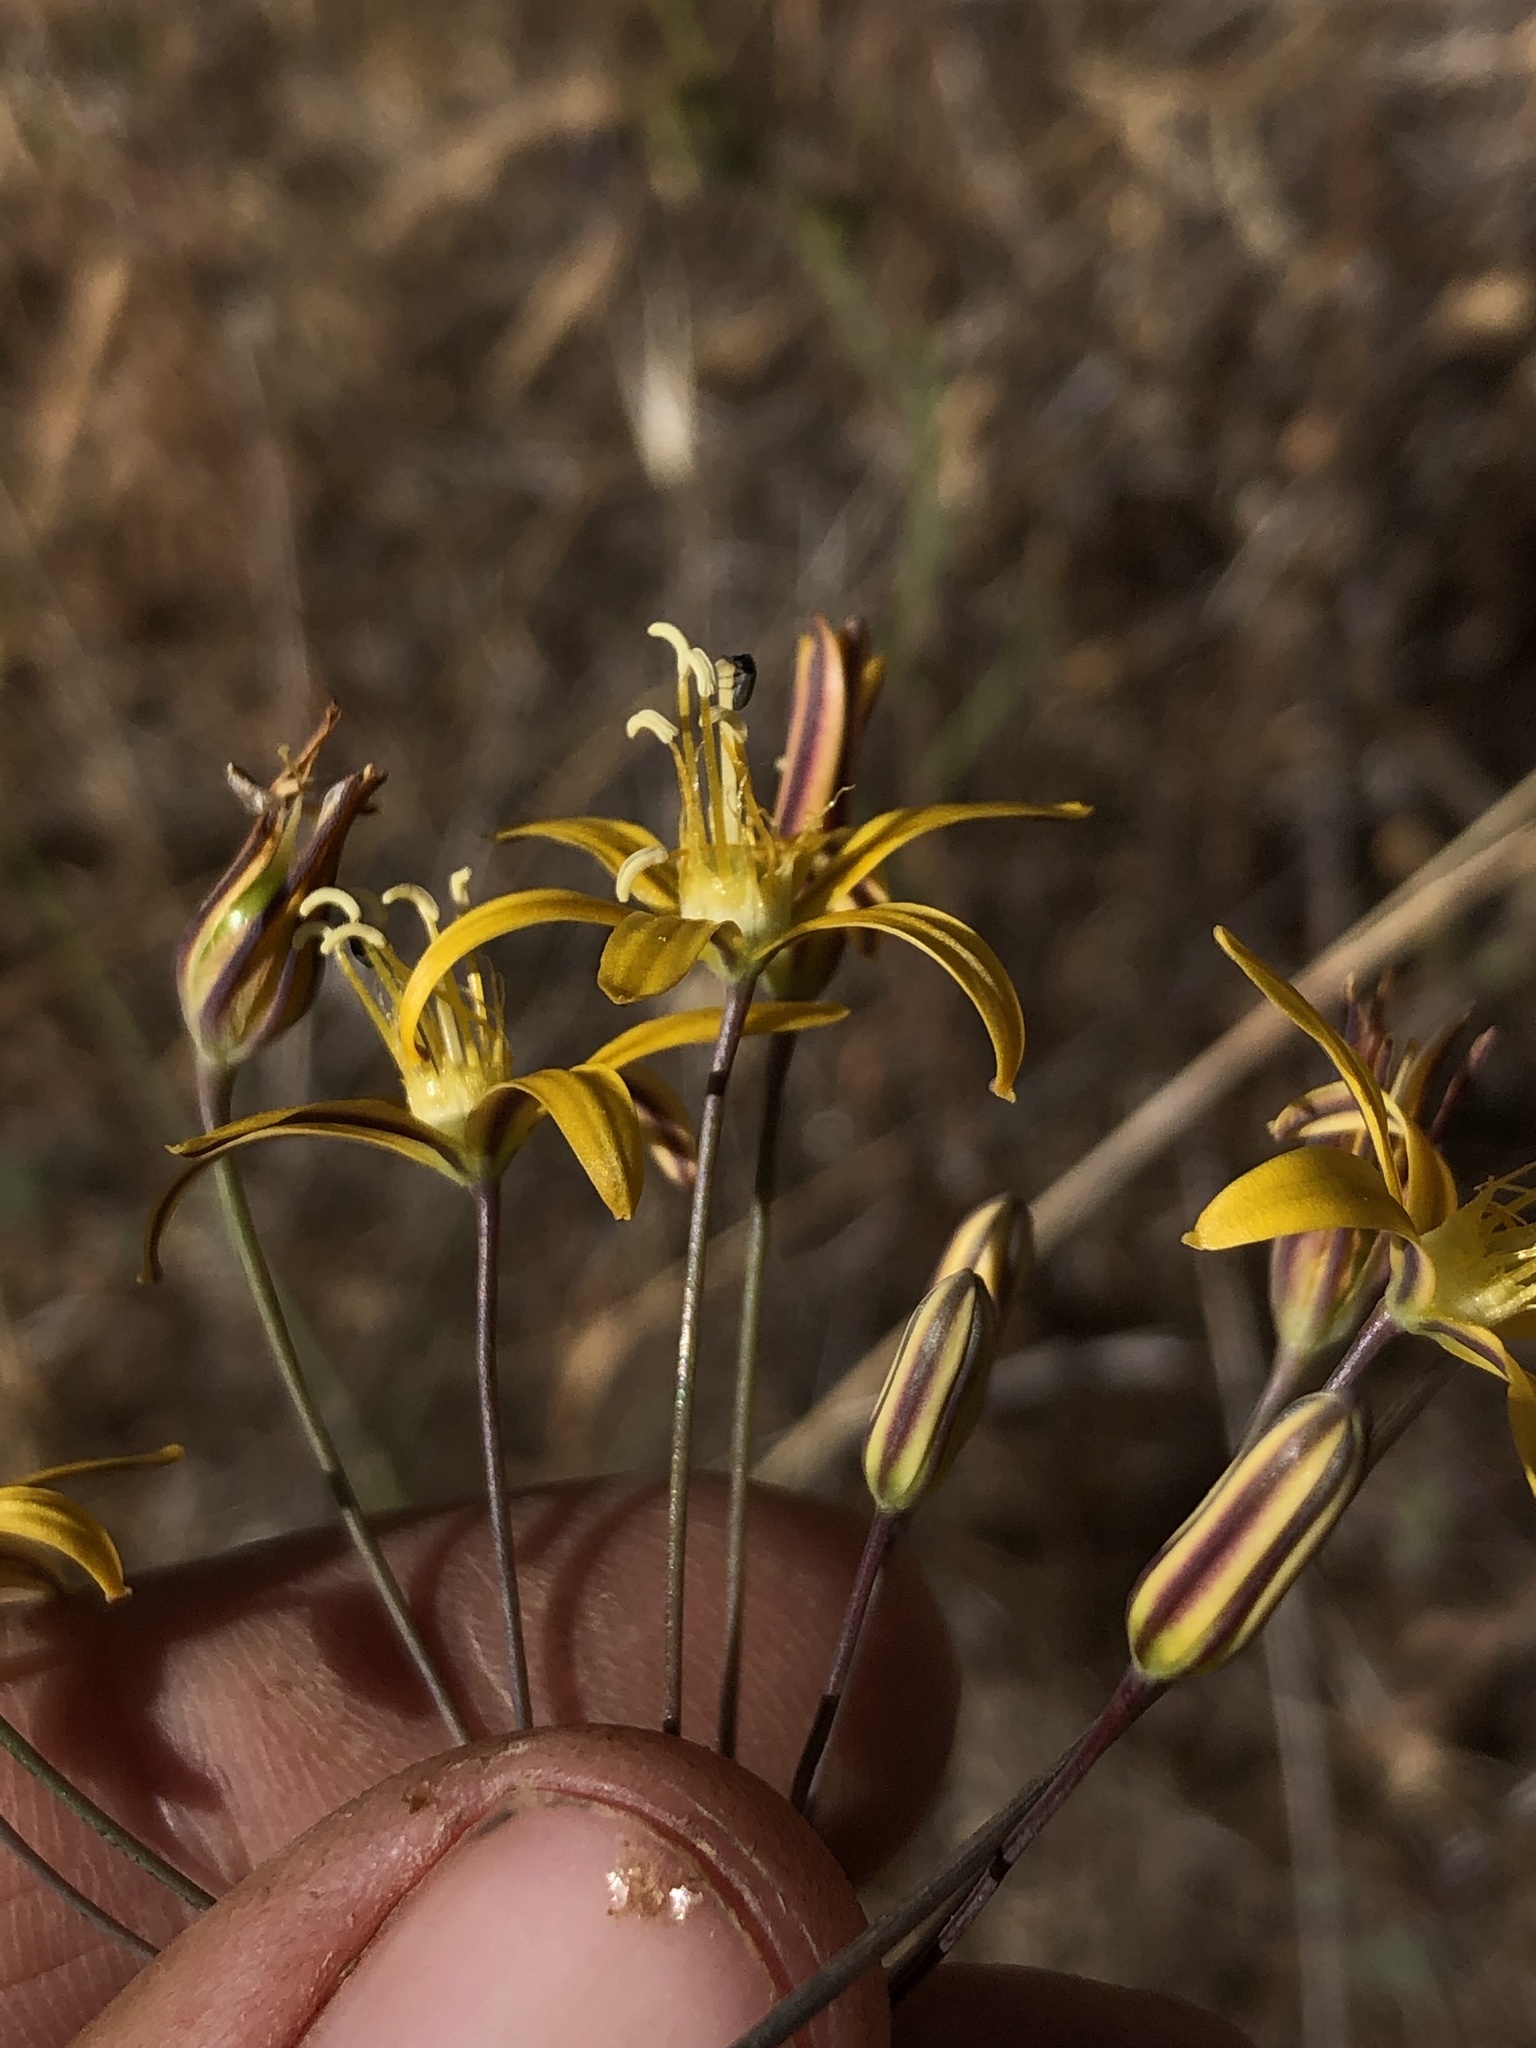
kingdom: Plantae
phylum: Tracheophyta
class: Liliopsida
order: Asparagales
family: Asparagaceae
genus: Bloomeria
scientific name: Bloomeria crocea
